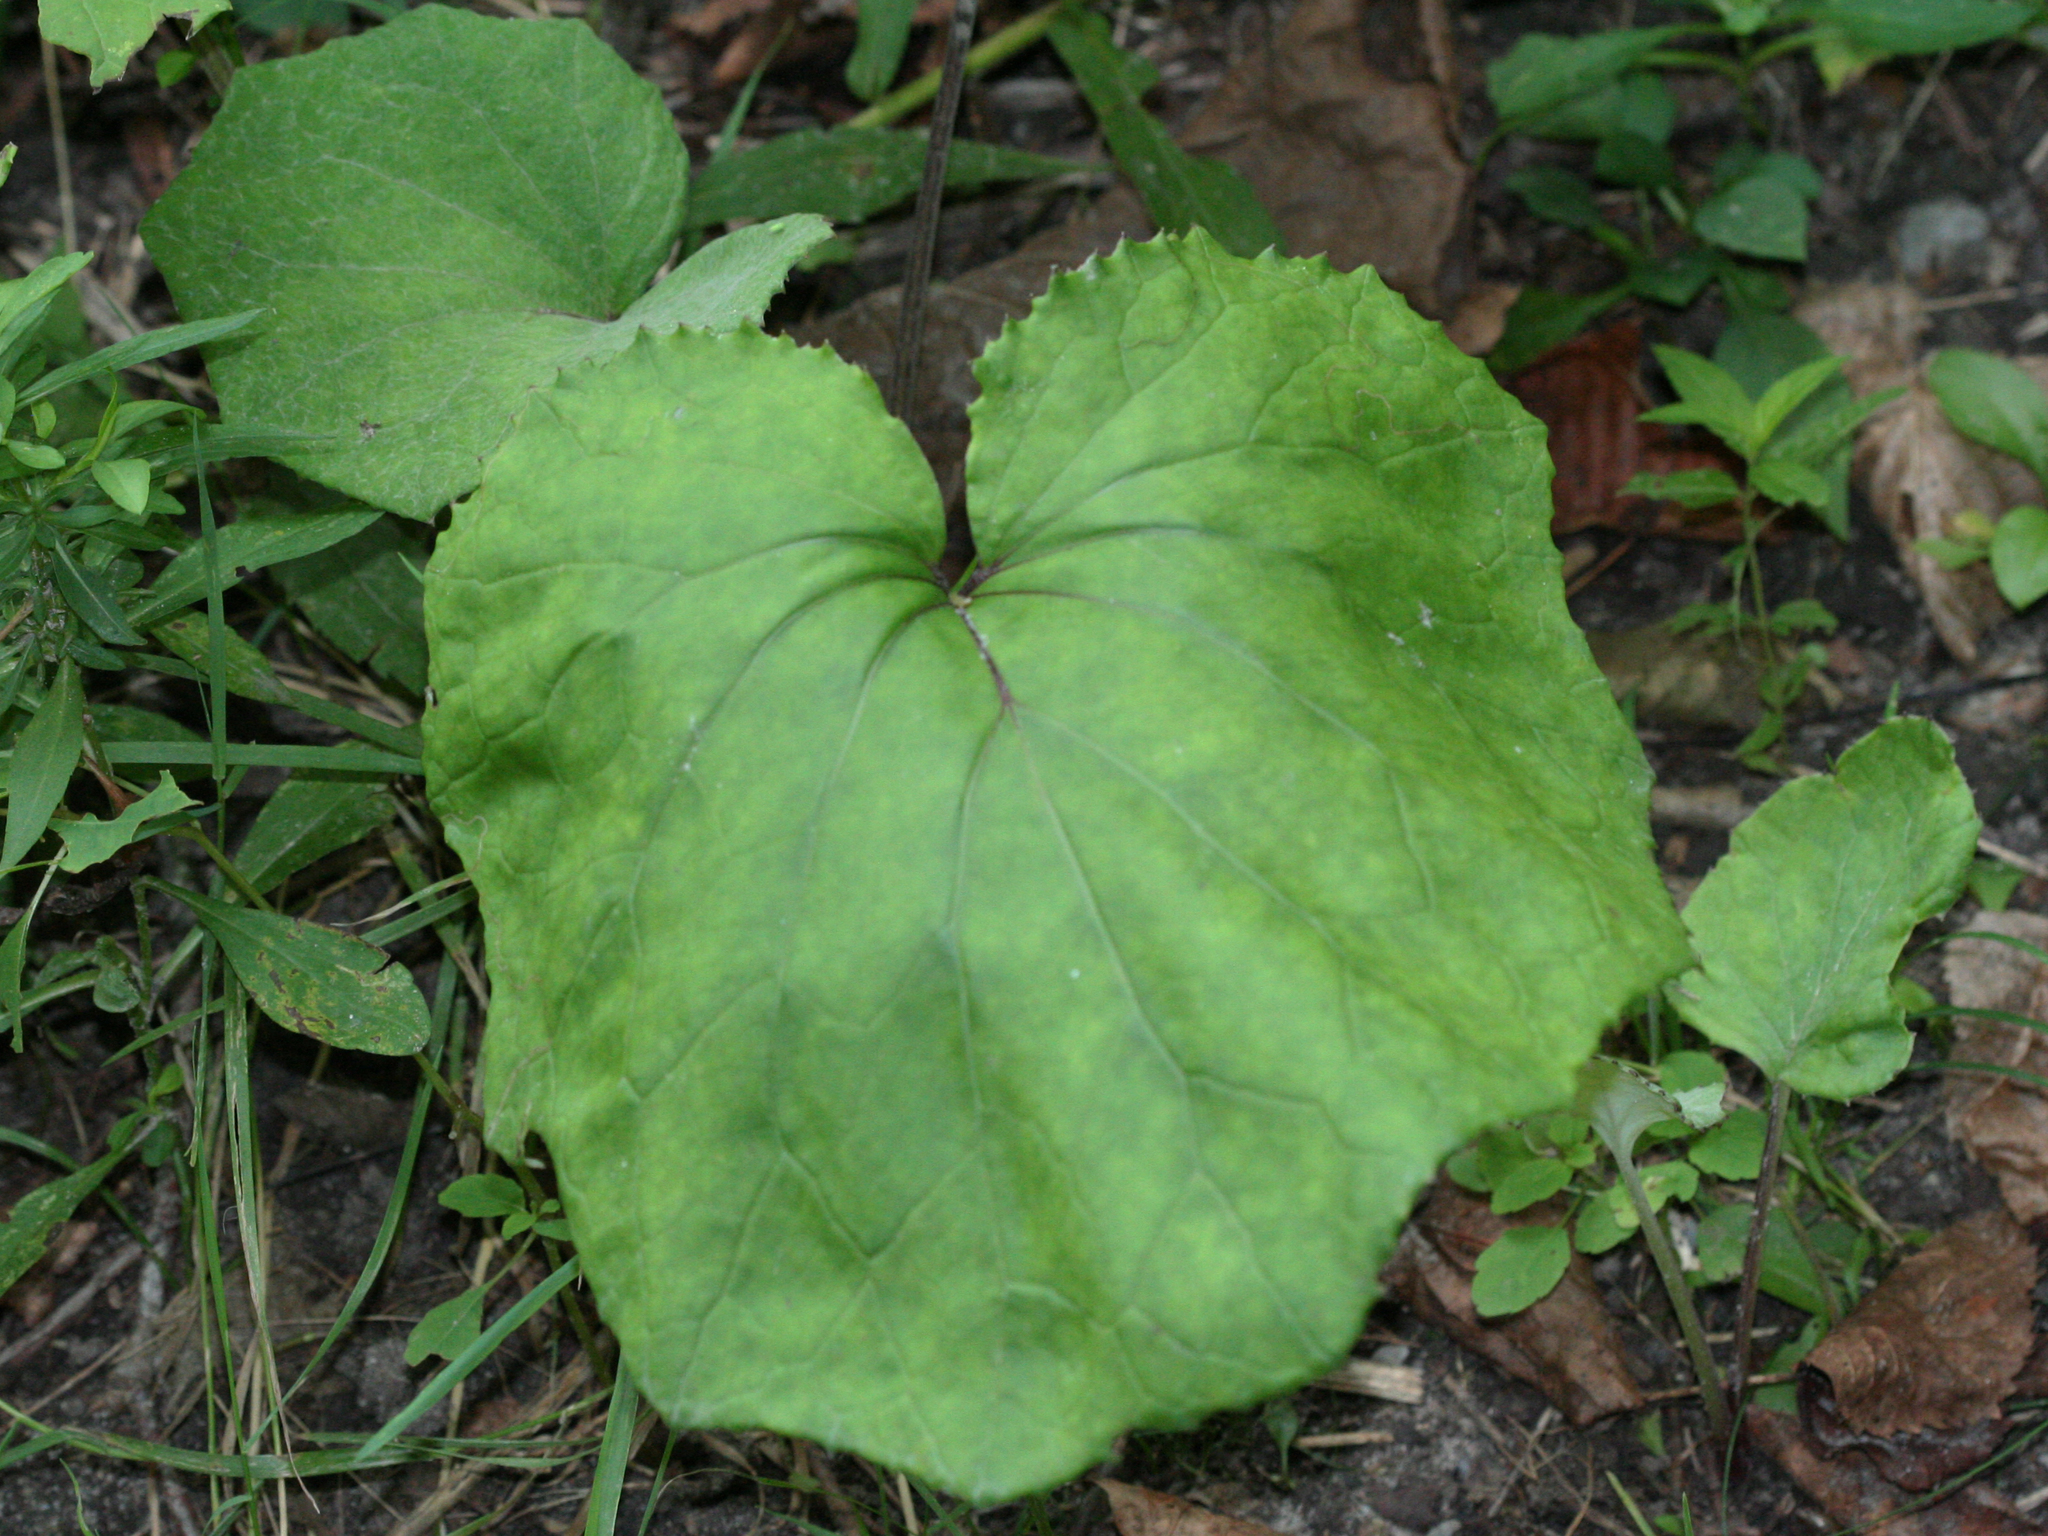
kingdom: Plantae
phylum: Tracheophyta
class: Magnoliopsida
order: Asterales
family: Asteraceae
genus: Tussilago
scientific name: Tussilago farfara
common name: Coltsfoot
